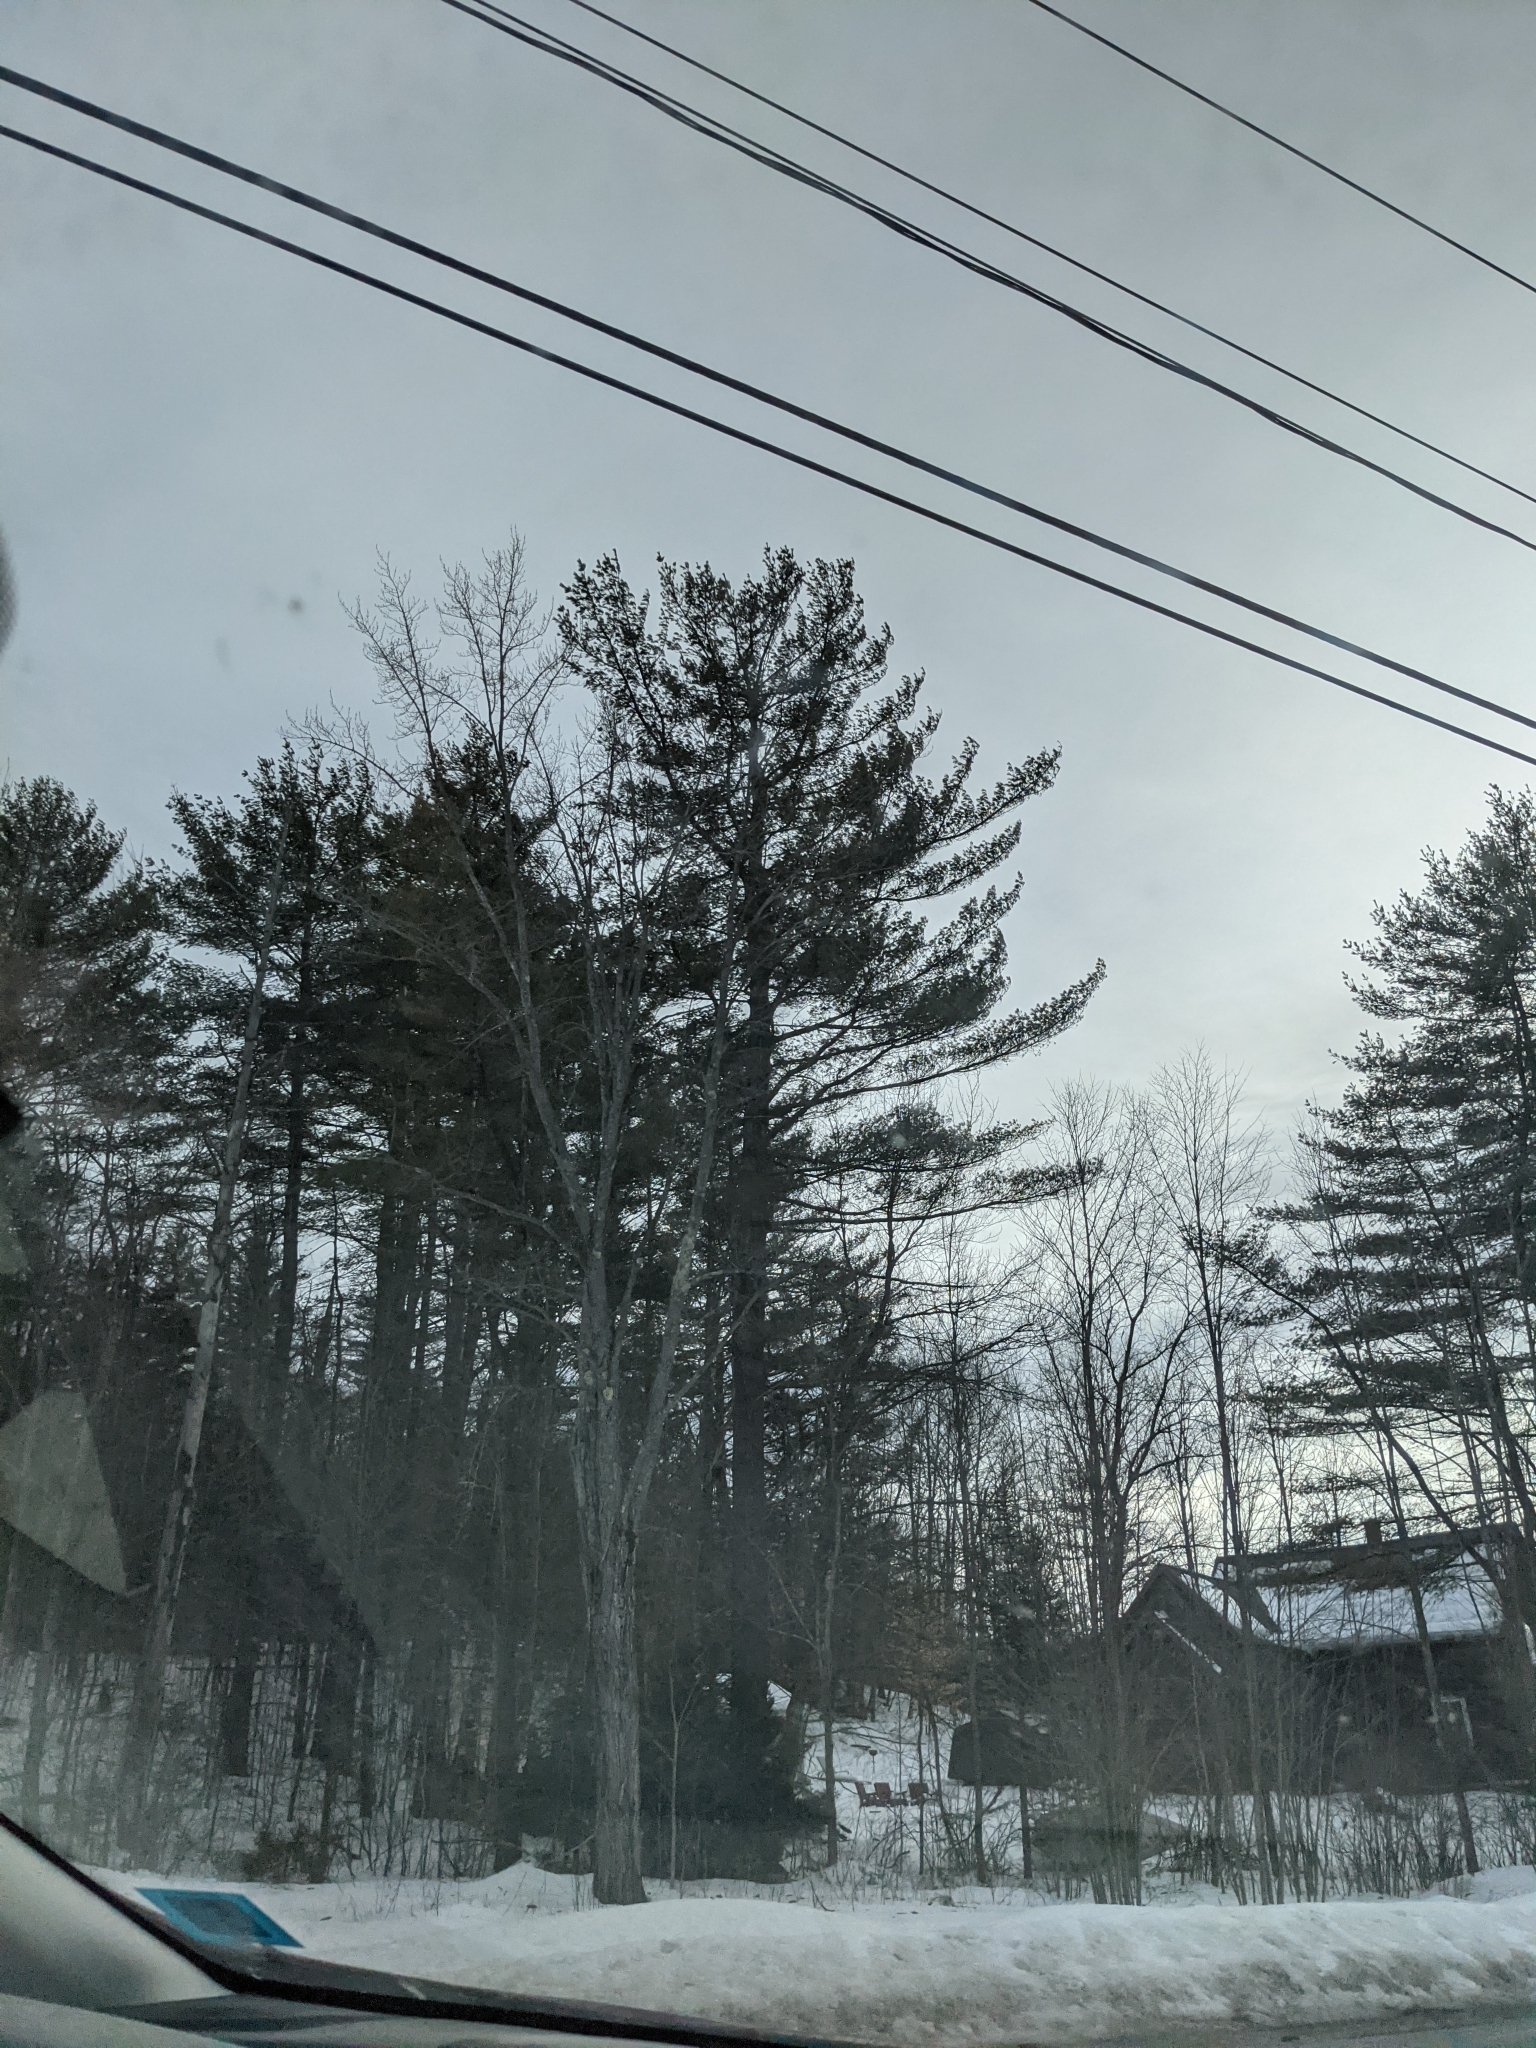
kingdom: Plantae
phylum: Tracheophyta
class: Pinopsida
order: Pinales
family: Pinaceae
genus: Pinus
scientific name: Pinus strobus
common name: Weymouth pine
